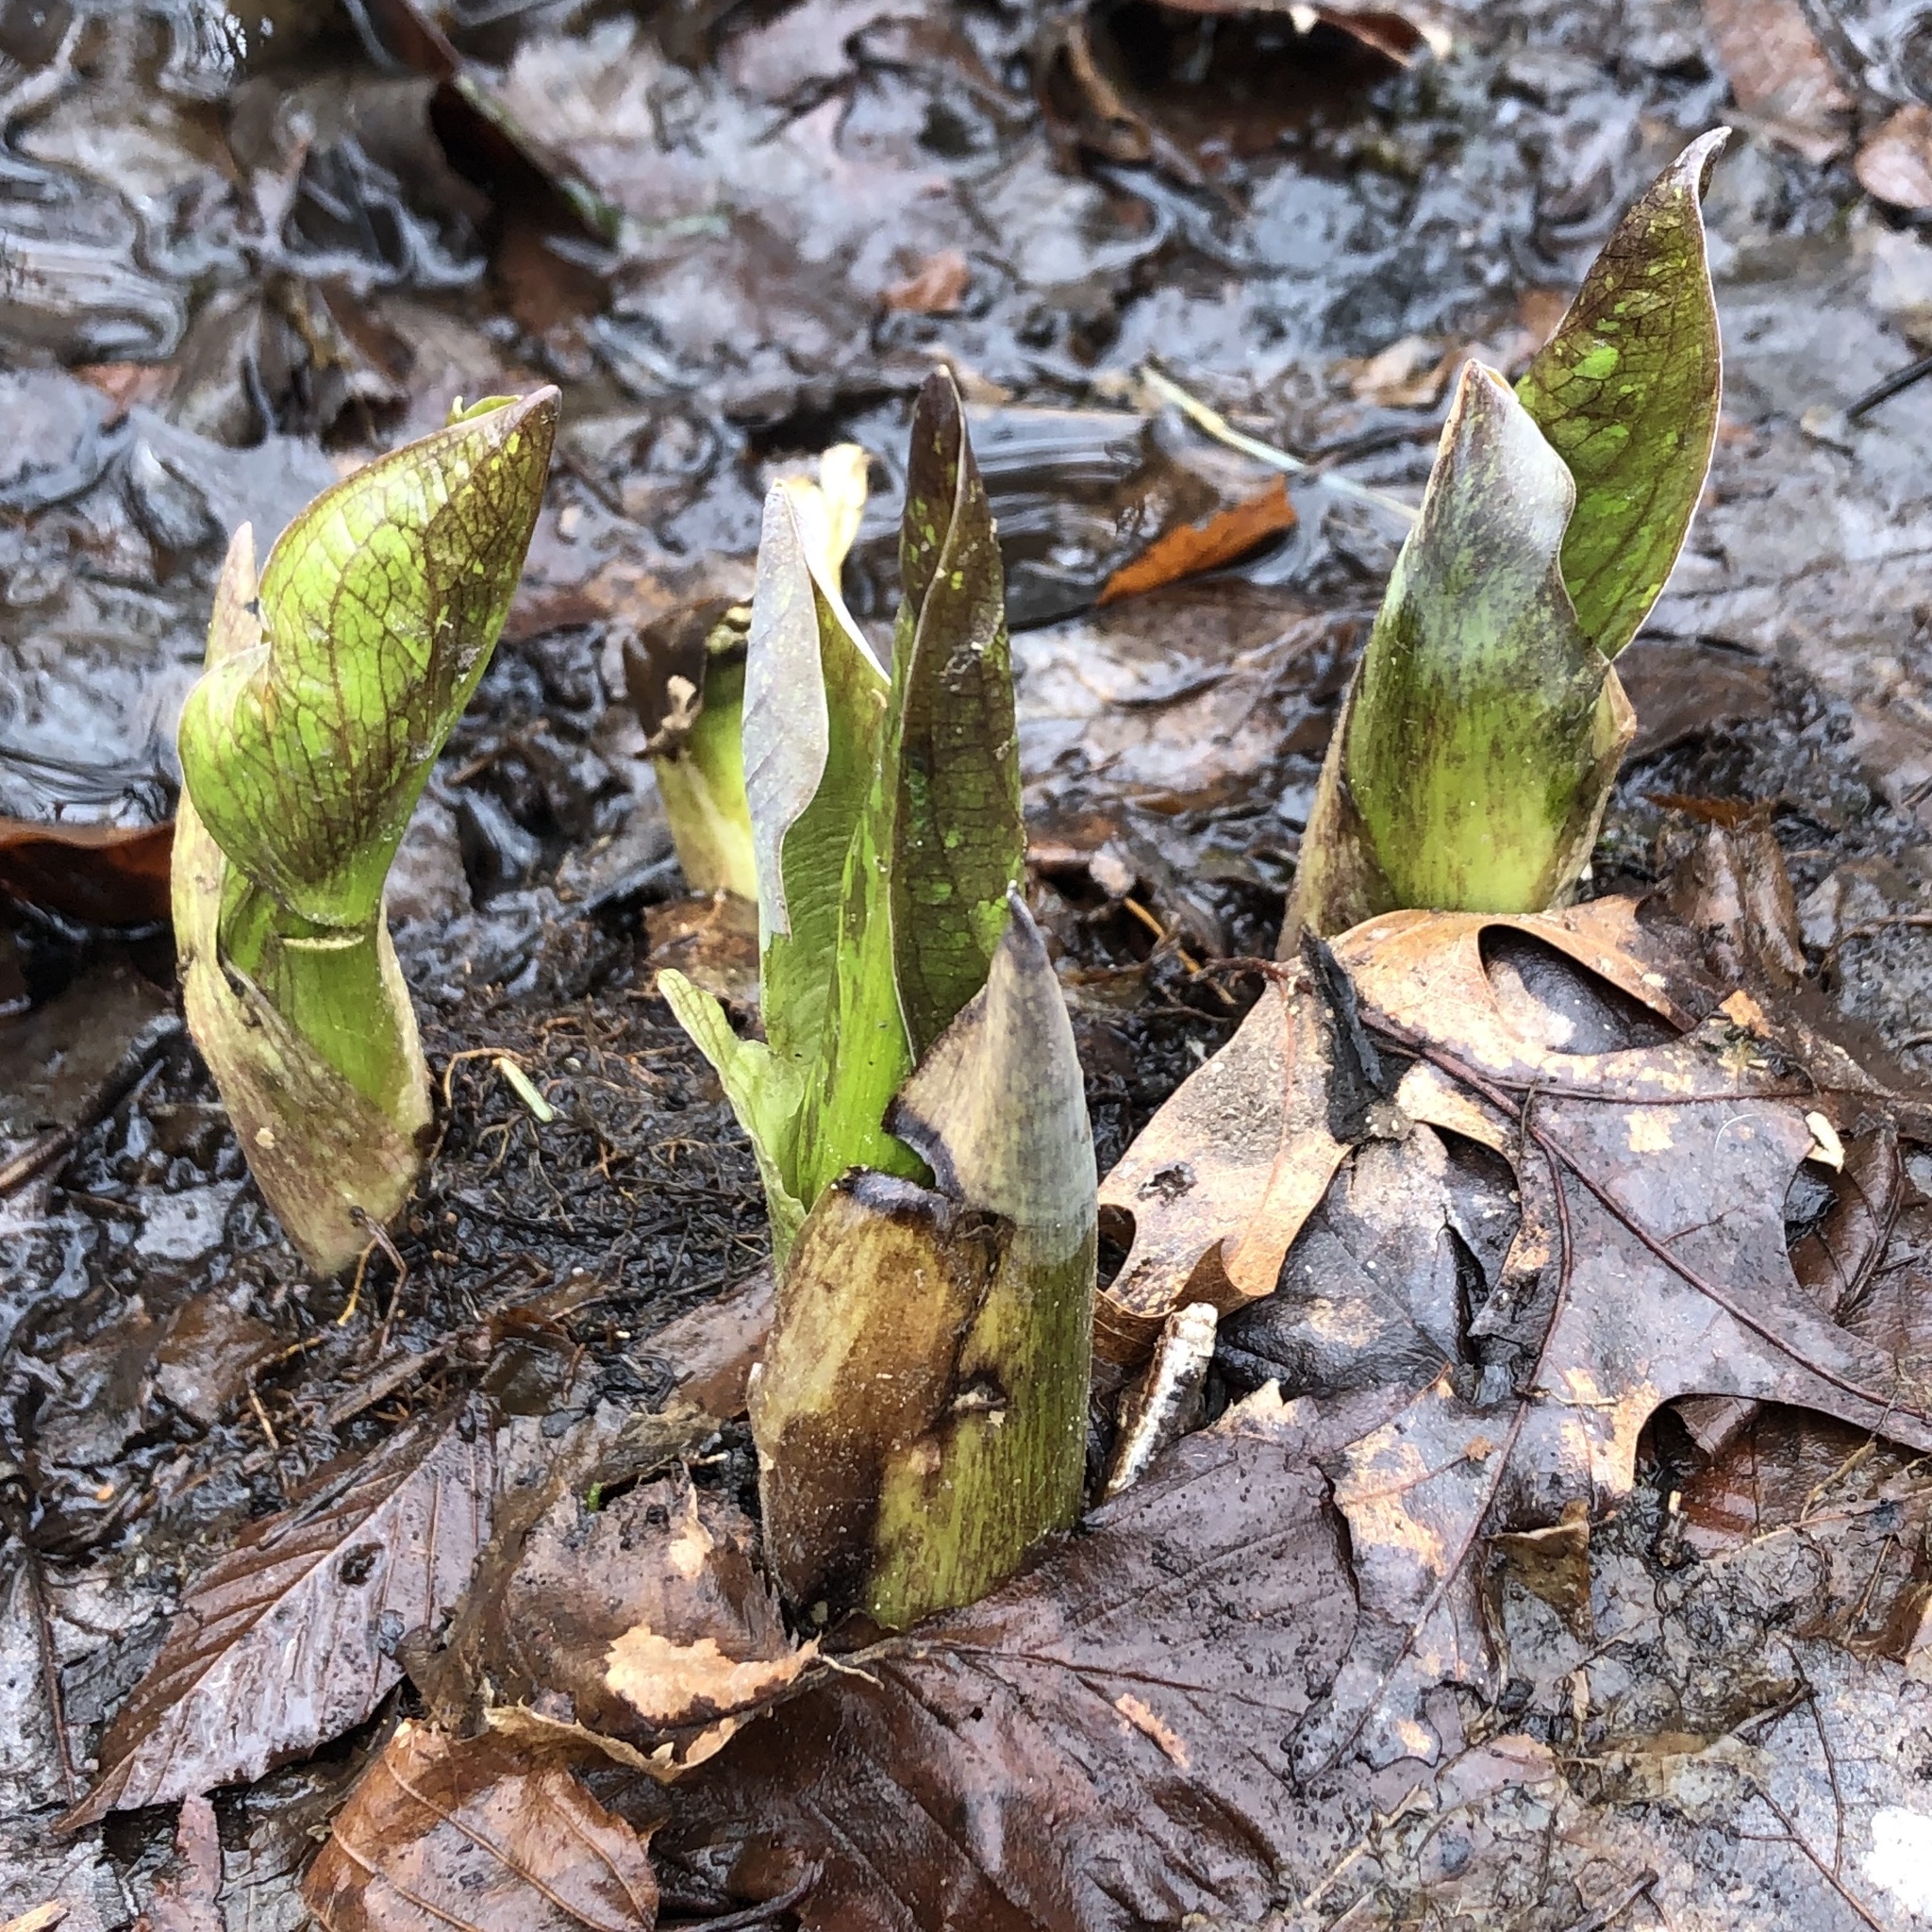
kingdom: Plantae
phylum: Tracheophyta
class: Liliopsida
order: Alismatales
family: Araceae
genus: Symplocarpus
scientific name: Symplocarpus foetidus
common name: Eastern skunk cabbage
